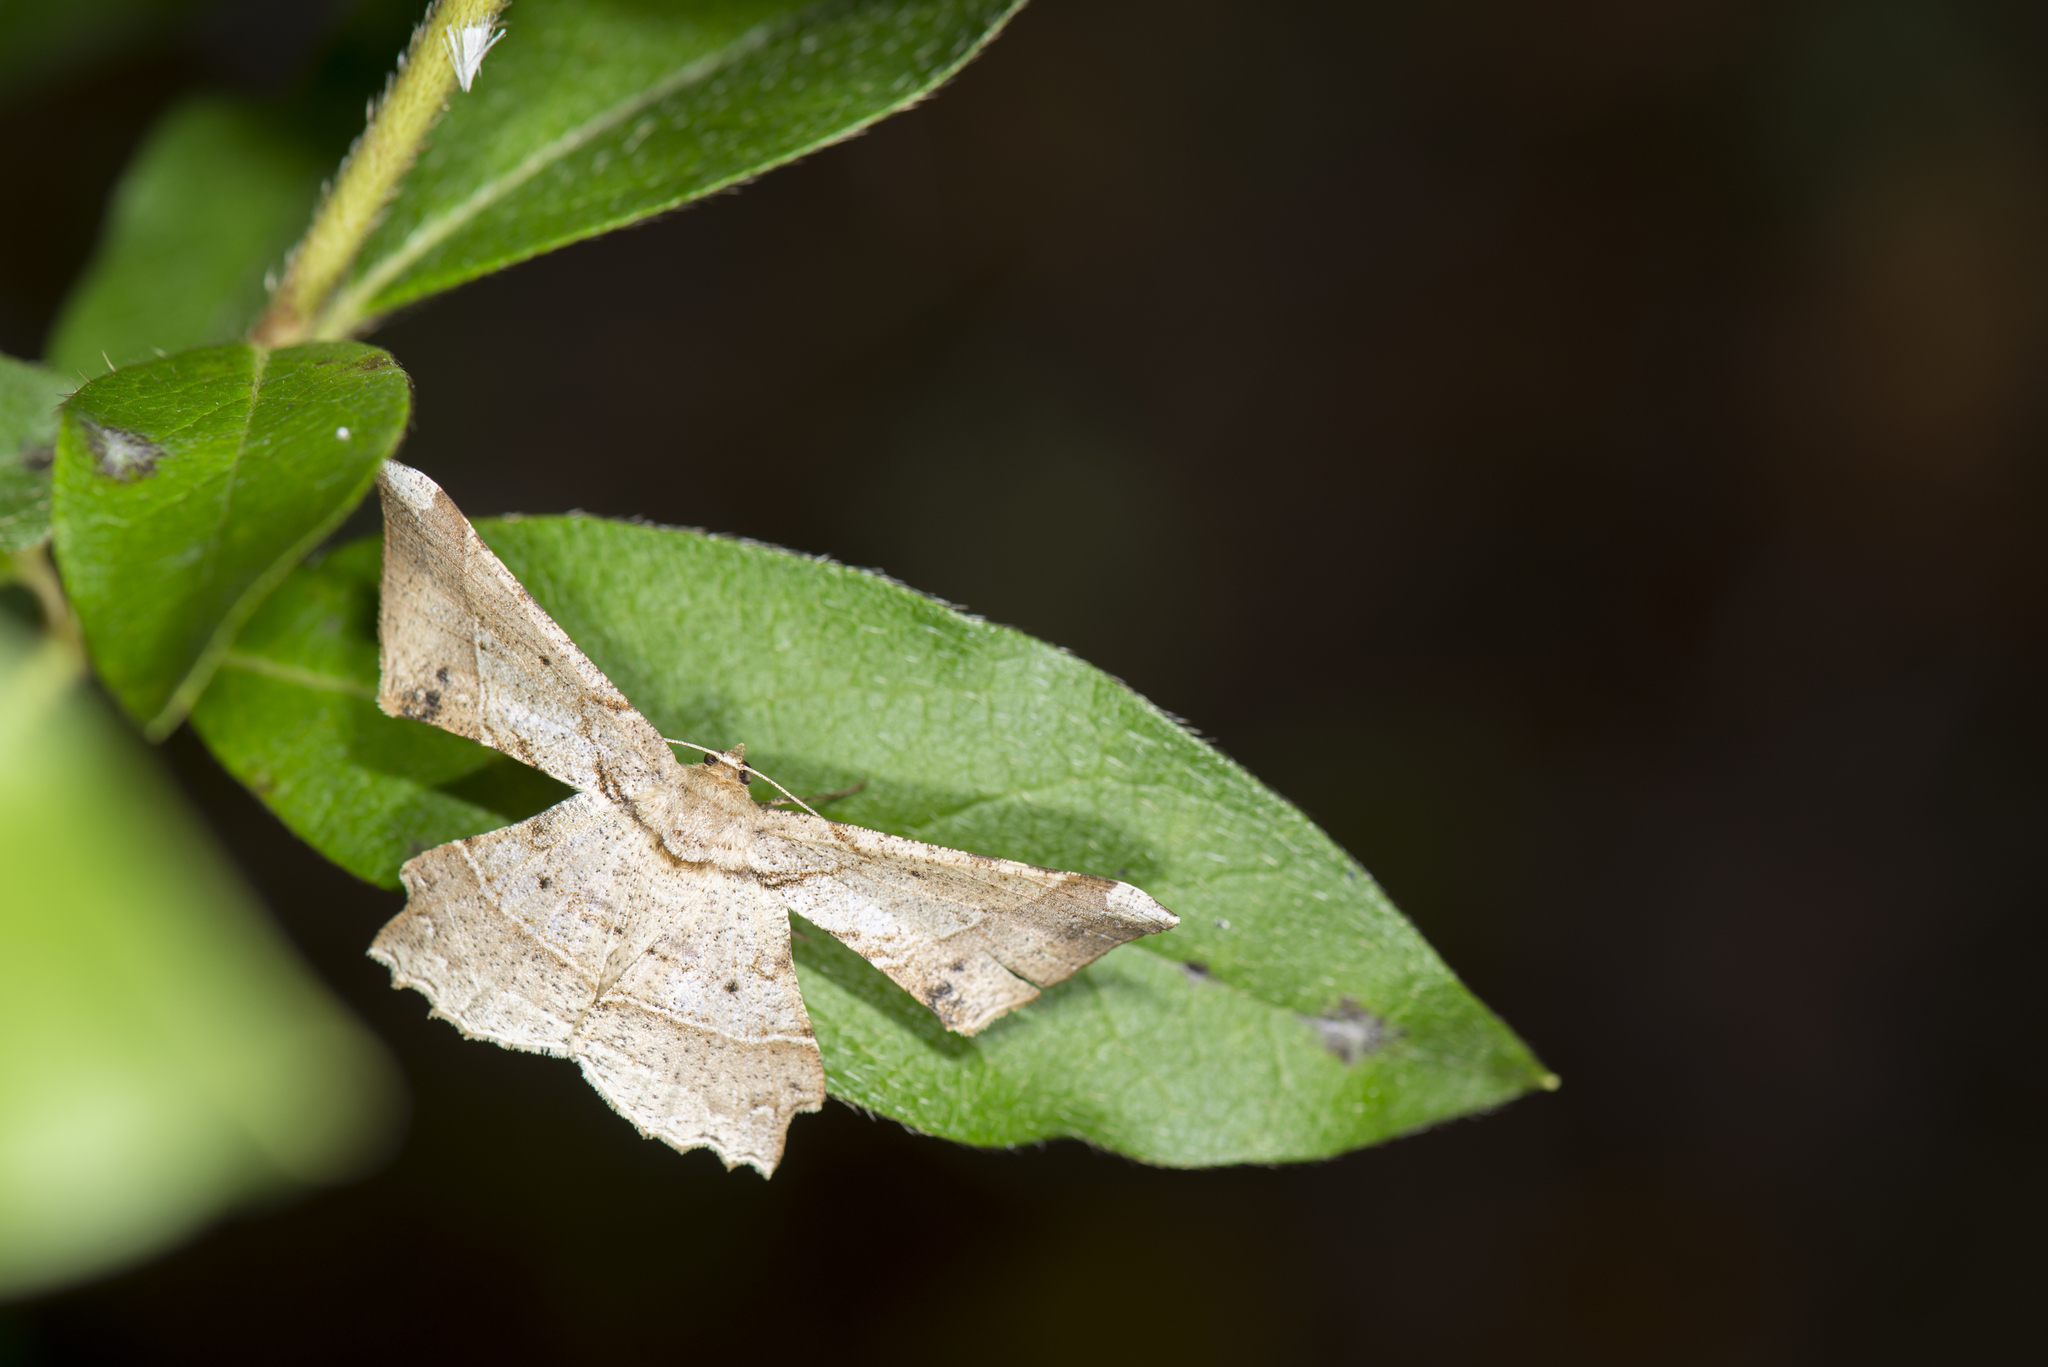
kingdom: Animalia
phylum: Arthropoda
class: Insecta
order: Lepidoptera
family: Geometridae
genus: Krananda
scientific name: Krananda latimarginaria
